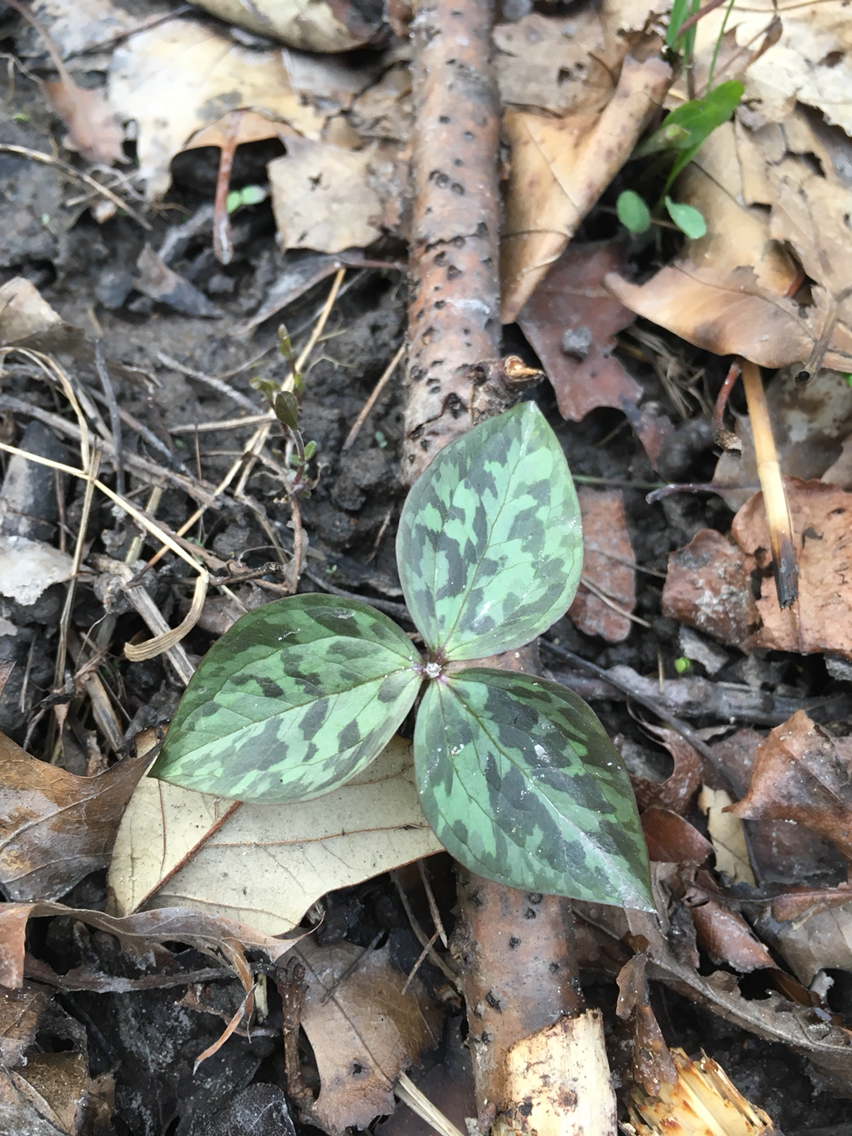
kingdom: Plantae
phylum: Tracheophyta
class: Liliopsida
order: Liliales
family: Melanthiaceae
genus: Trillium
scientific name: Trillium recurvatum
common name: Bloody butcher
